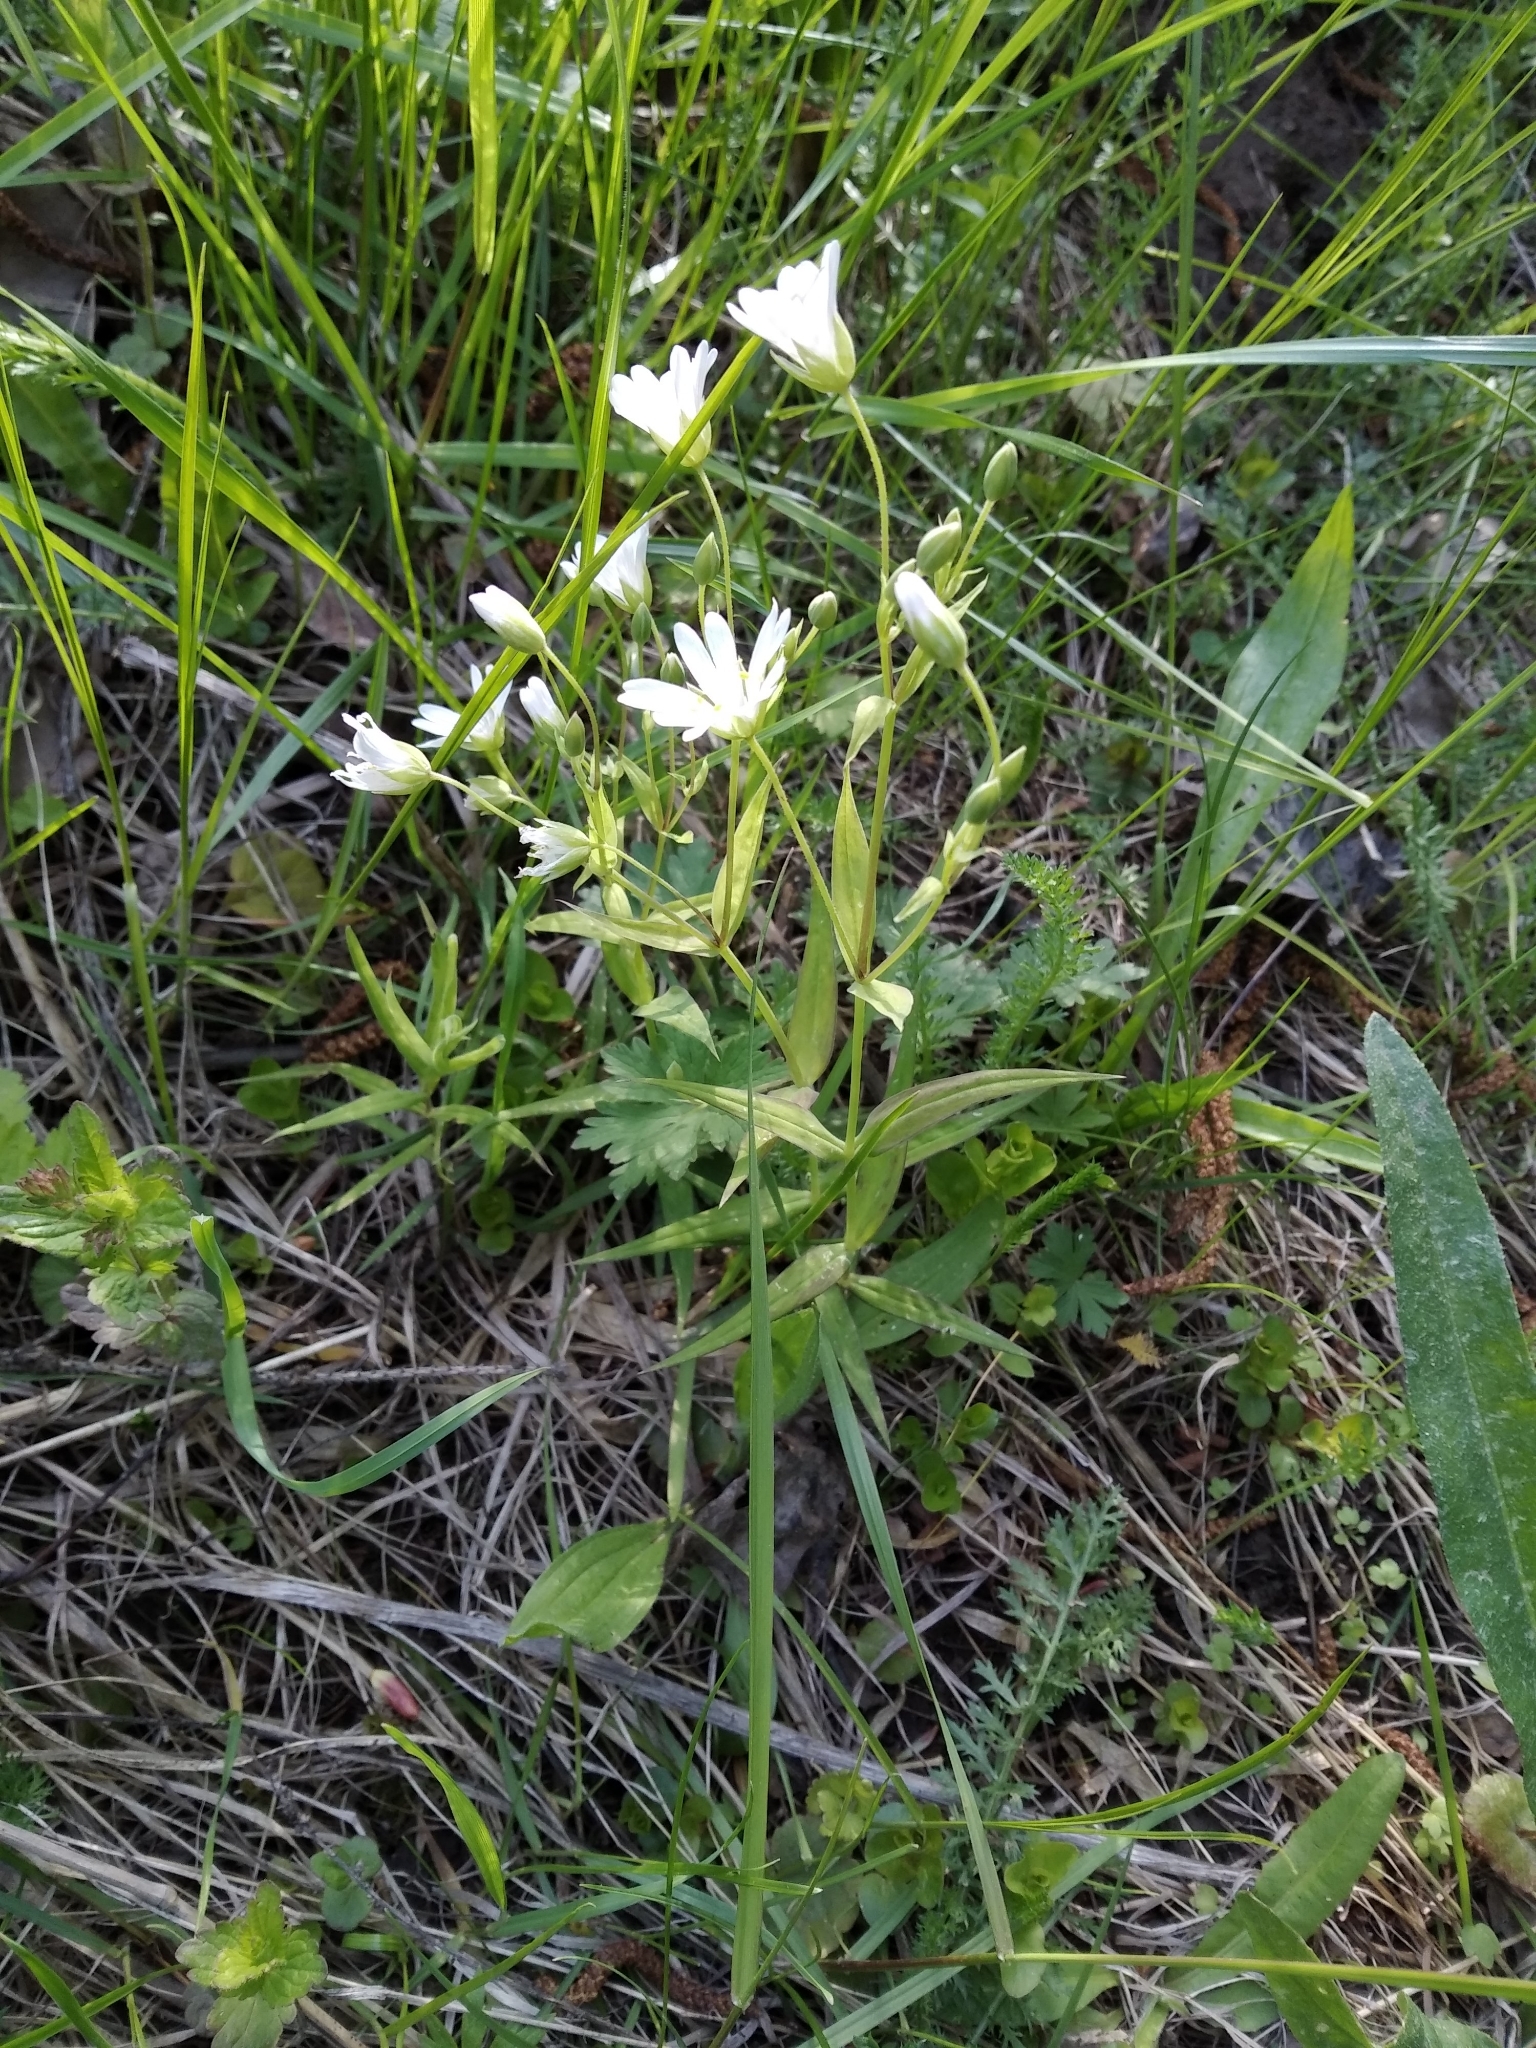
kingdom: Plantae
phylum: Tracheophyta
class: Magnoliopsida
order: Caryophyllales
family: Caryophyllaceae
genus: Rabelera
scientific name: Rabelera holostea
